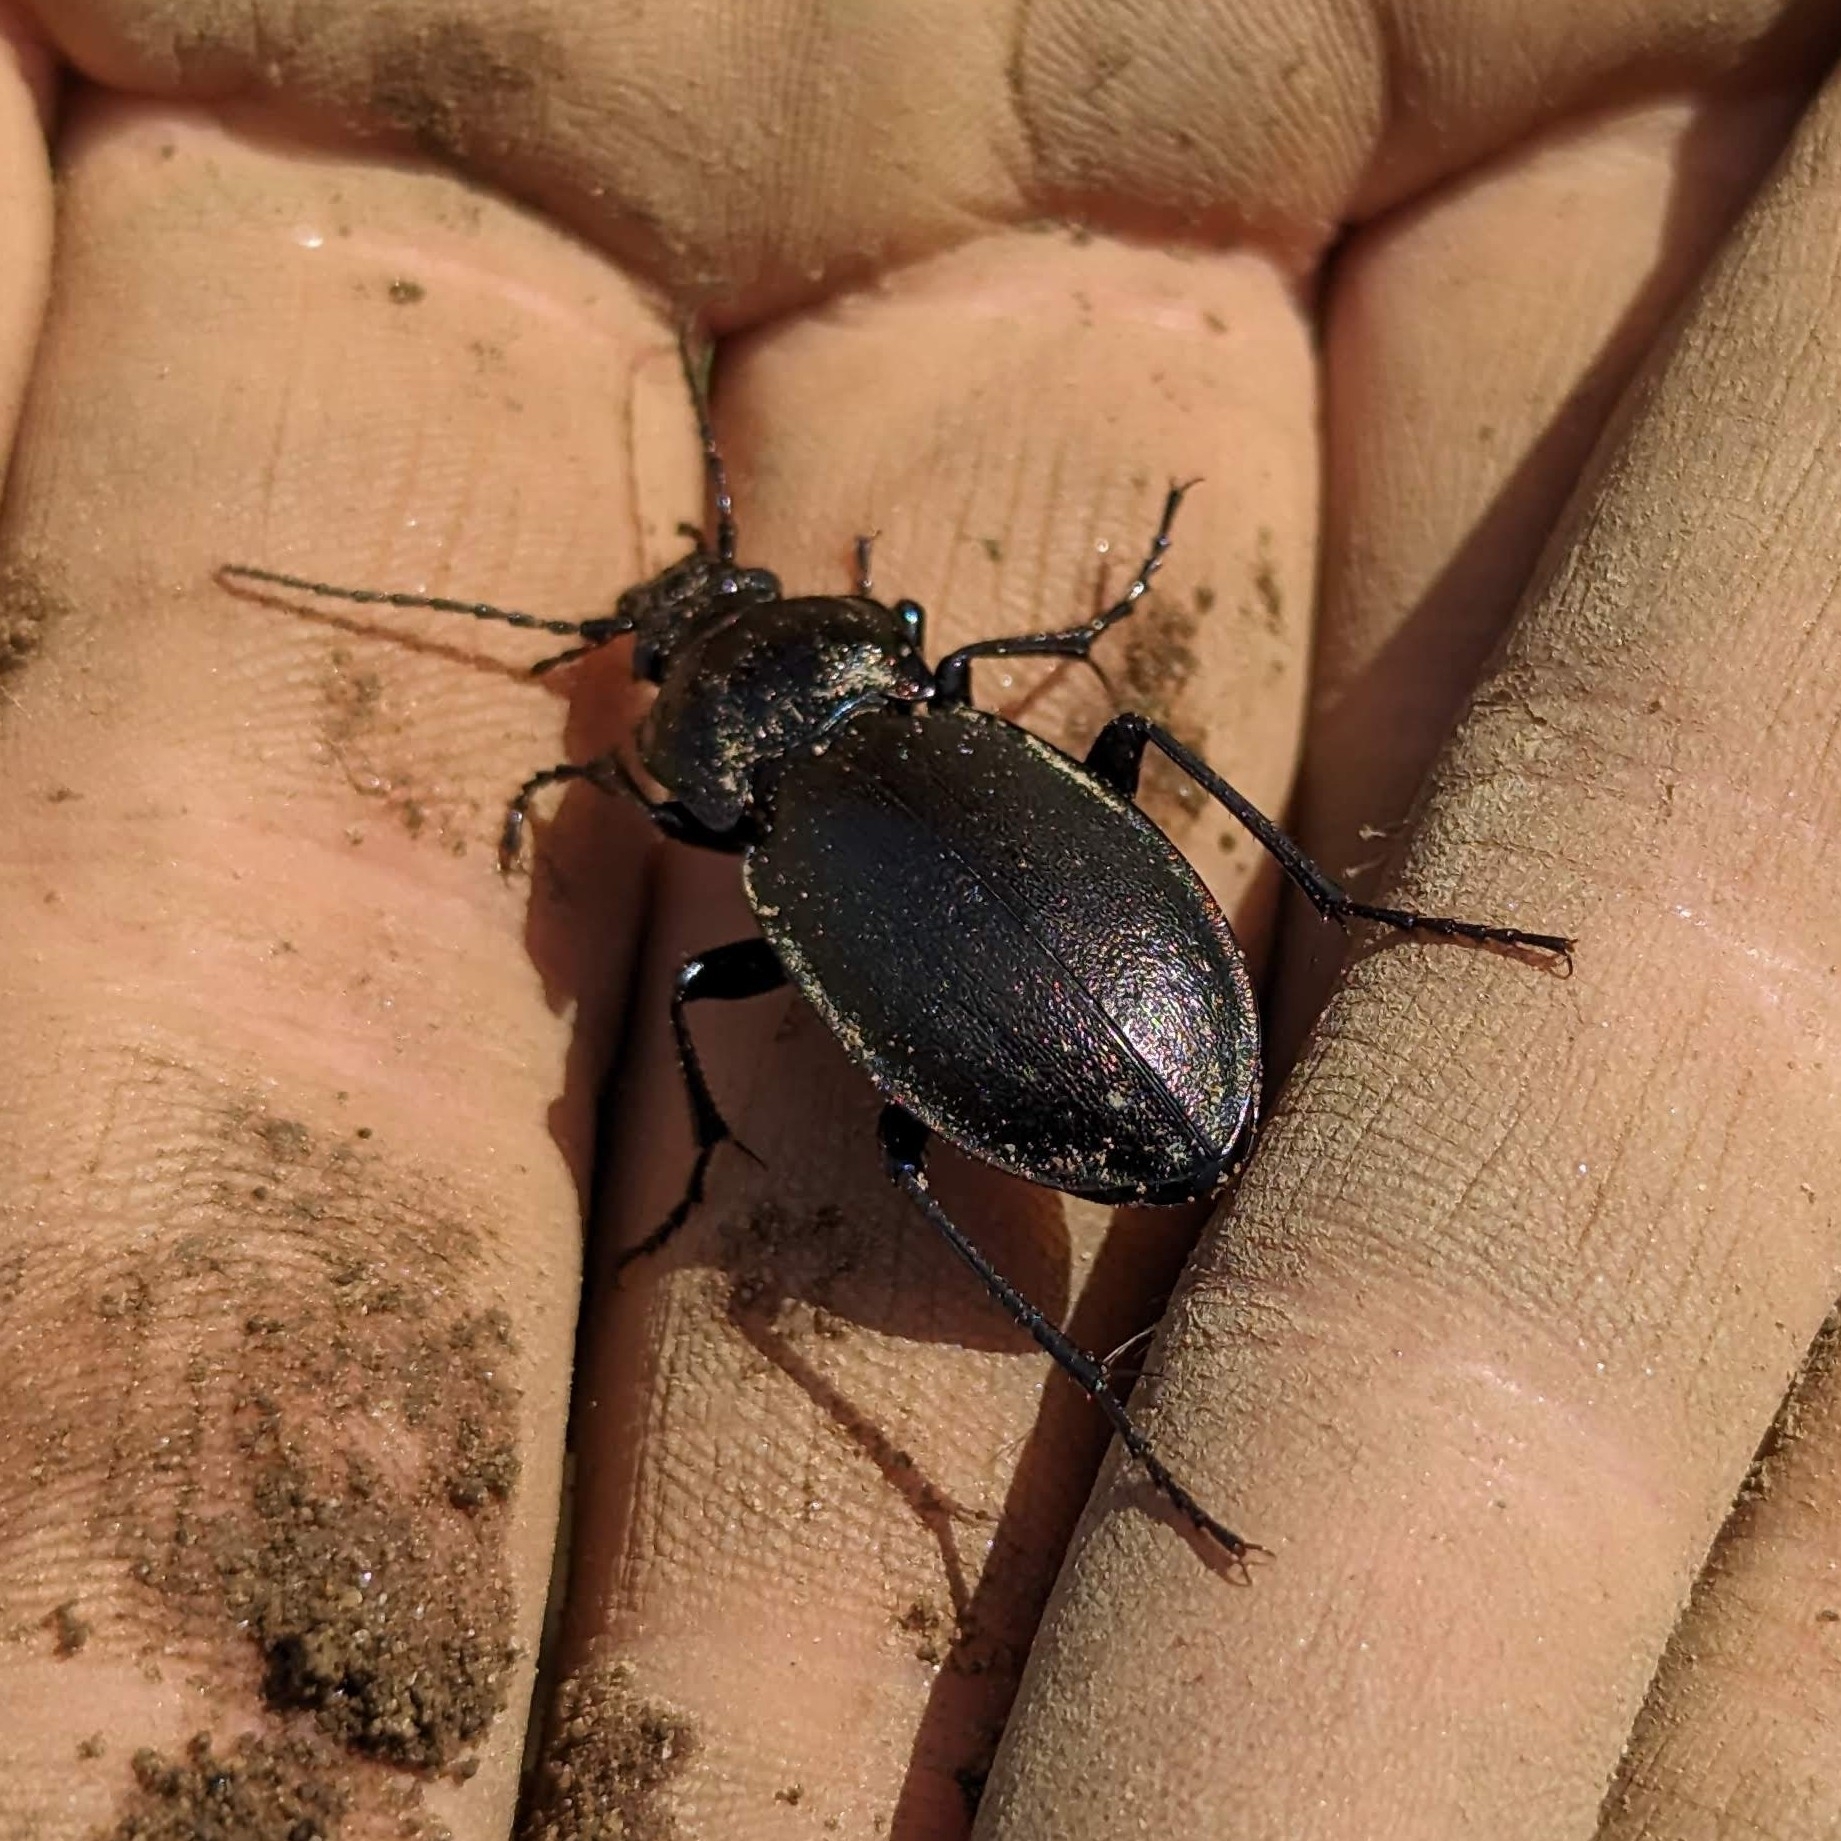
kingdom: Animalia
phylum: Arthropoda
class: Insecta
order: Coleoptera
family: Carabidae
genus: Carabus
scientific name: Carabus nemoralis
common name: European ground beetle
